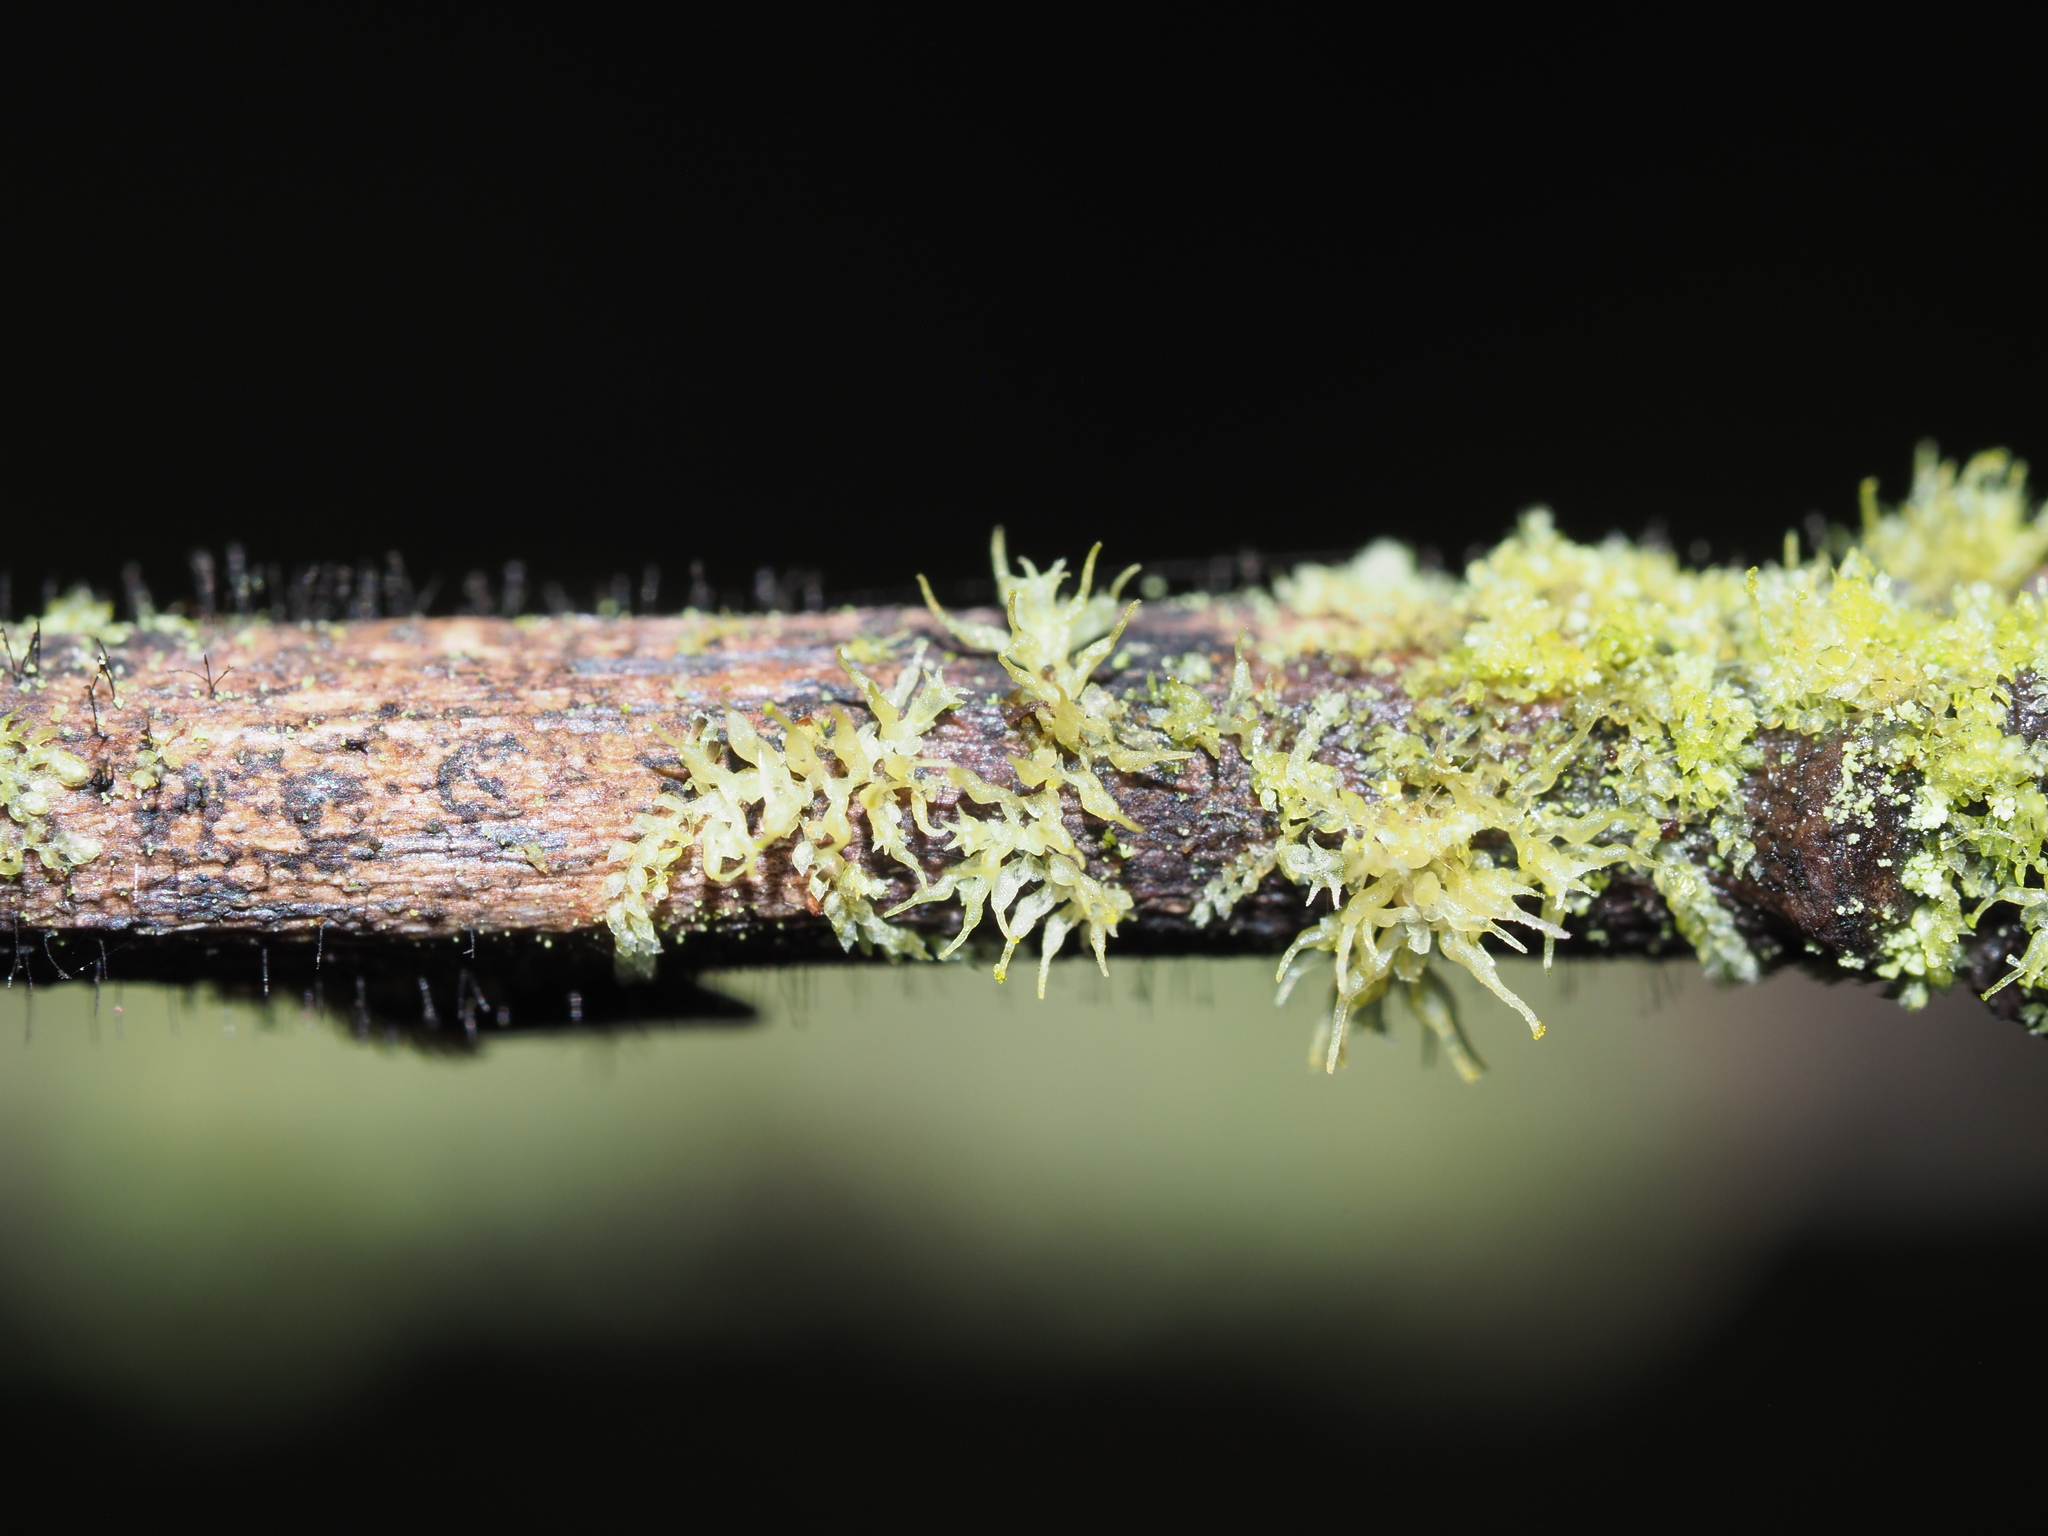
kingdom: Plantae
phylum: Marchantiophyta
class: Jungermanniopsida
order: Porellales
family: Lejeuneaceae
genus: Colura
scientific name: Colura tenuicornis
